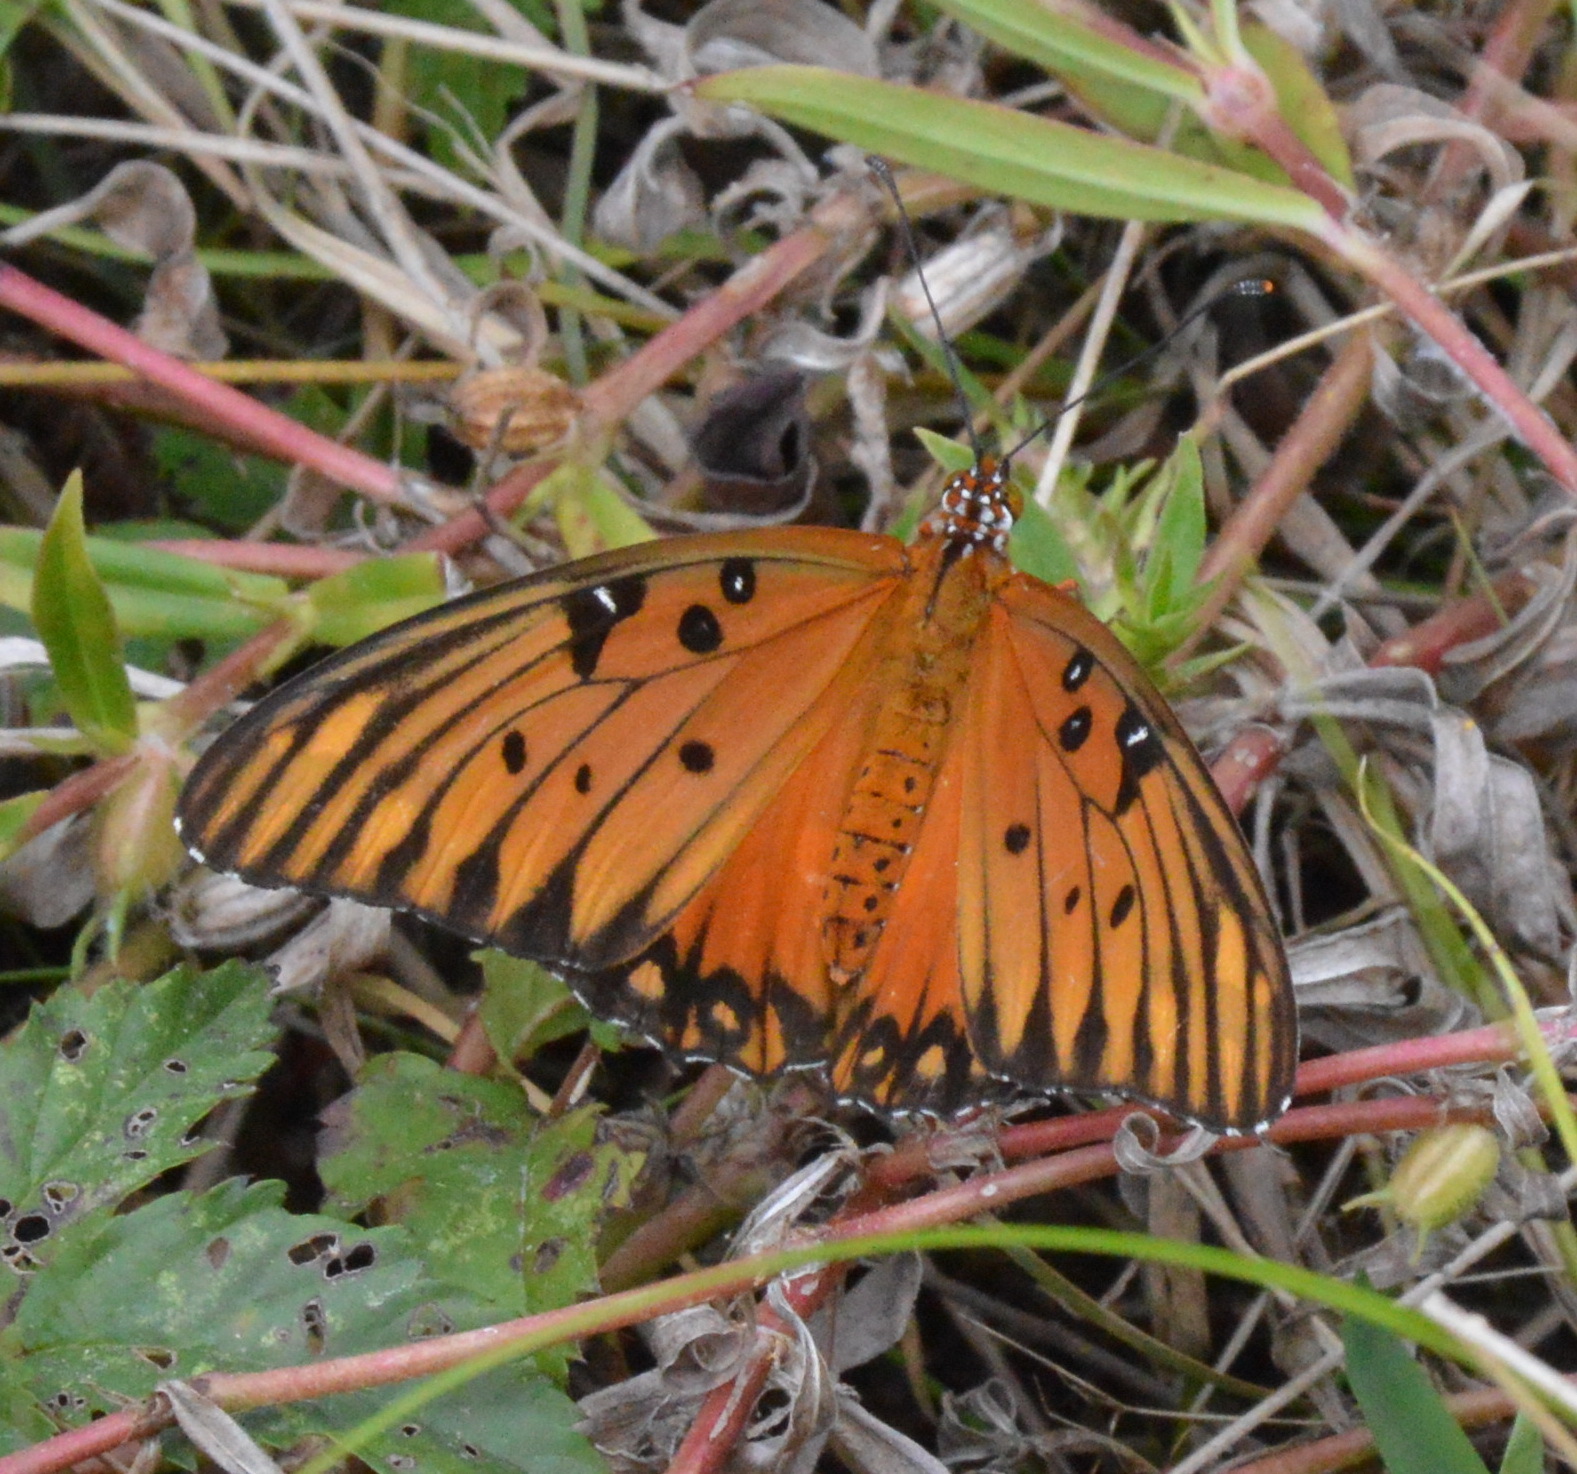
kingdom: Animalia
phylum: Arthropoda
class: Insecta
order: Lepidoptera
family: Nymphalidae
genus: Dione
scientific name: Dione vanillae
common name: Gulf fritillary
